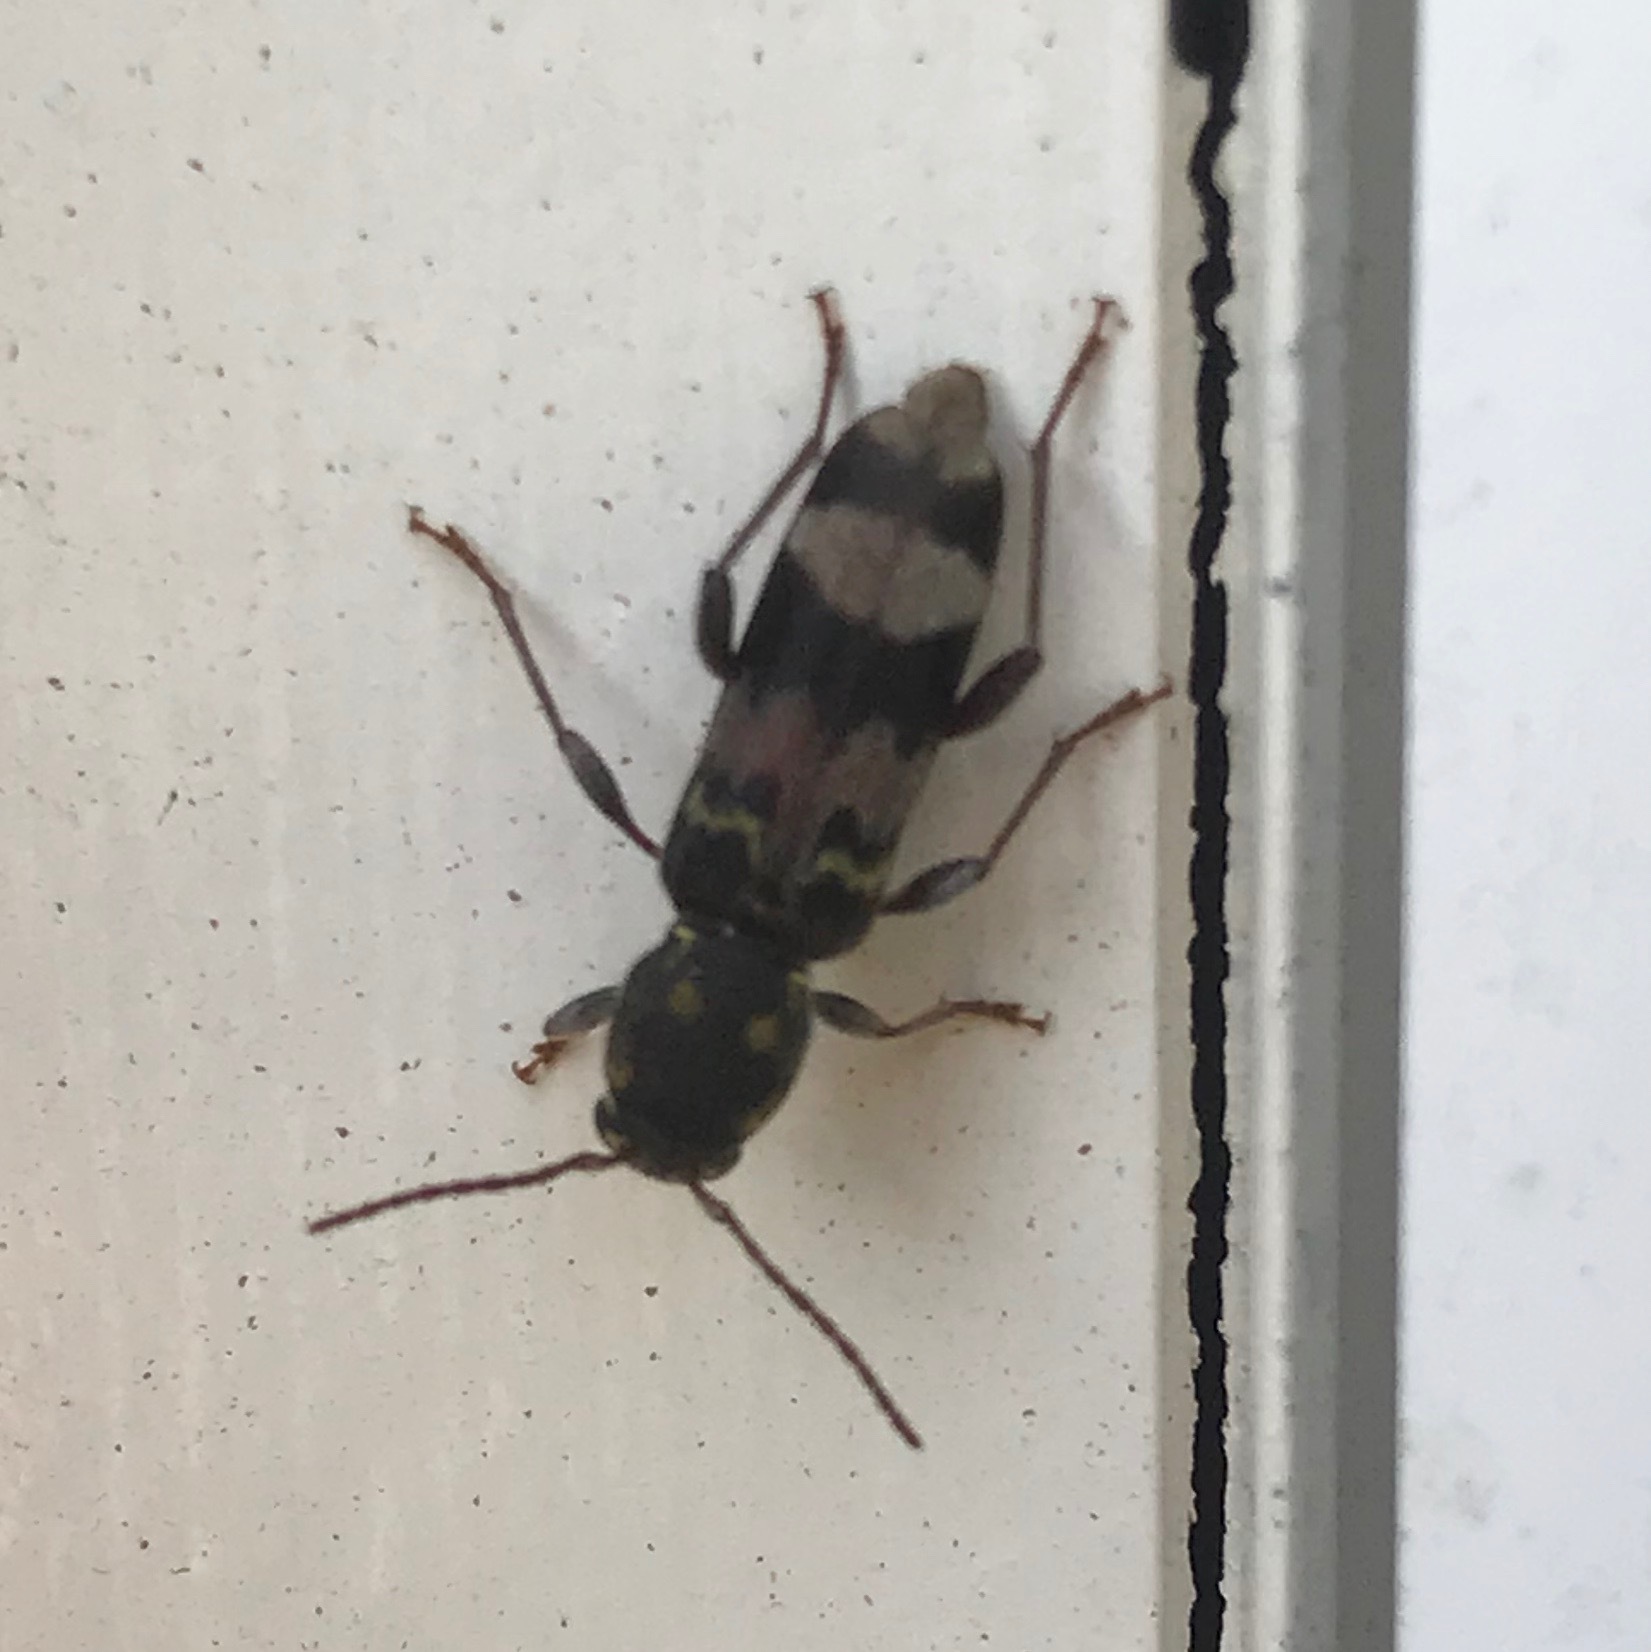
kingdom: Animalia
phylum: Arthropoda
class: Insecta
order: Coleoptera
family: Cerambycidae
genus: Xylotrechus
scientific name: Xylotrechus colonus
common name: Long-horned beetle
